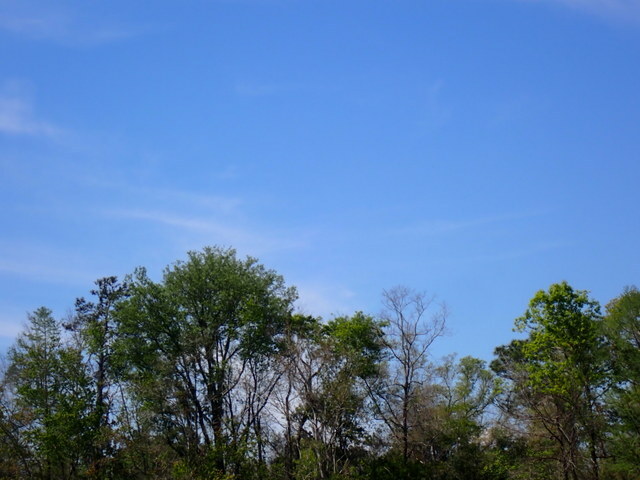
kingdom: Animalia
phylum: Chordata
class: Aves
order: Gruiformes
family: Aramidae
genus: Aramus
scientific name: Aramus guarauna
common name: Limpkin
